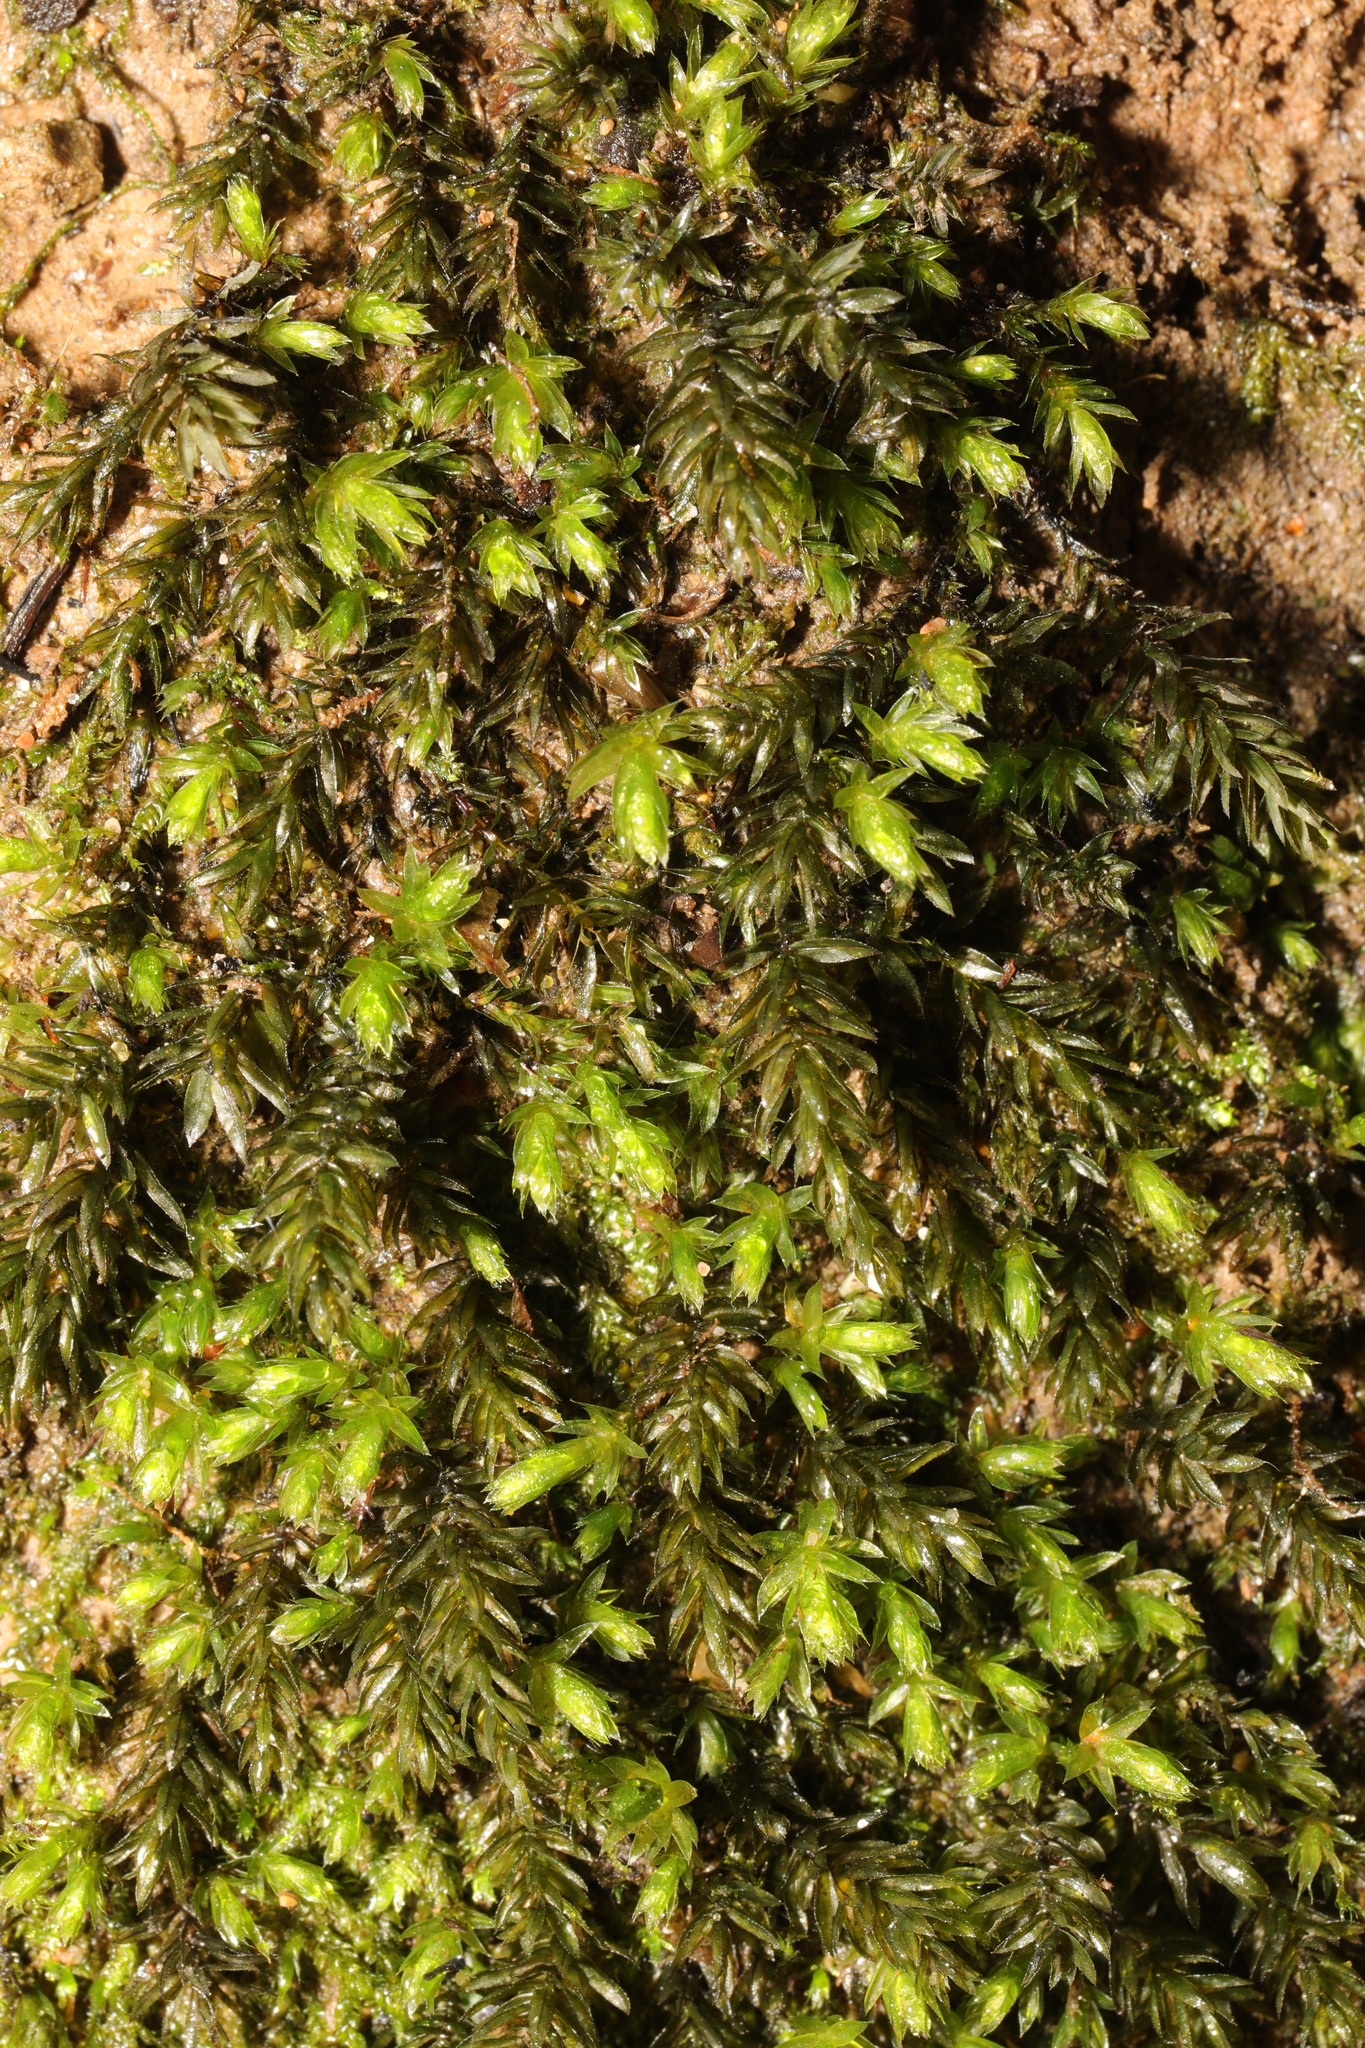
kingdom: Plantae
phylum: Bryophyta
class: Bryopsida
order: Bryales
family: Mniaceae
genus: Mnium
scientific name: Mnium hornum
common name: Swan's-neck leafy moss
